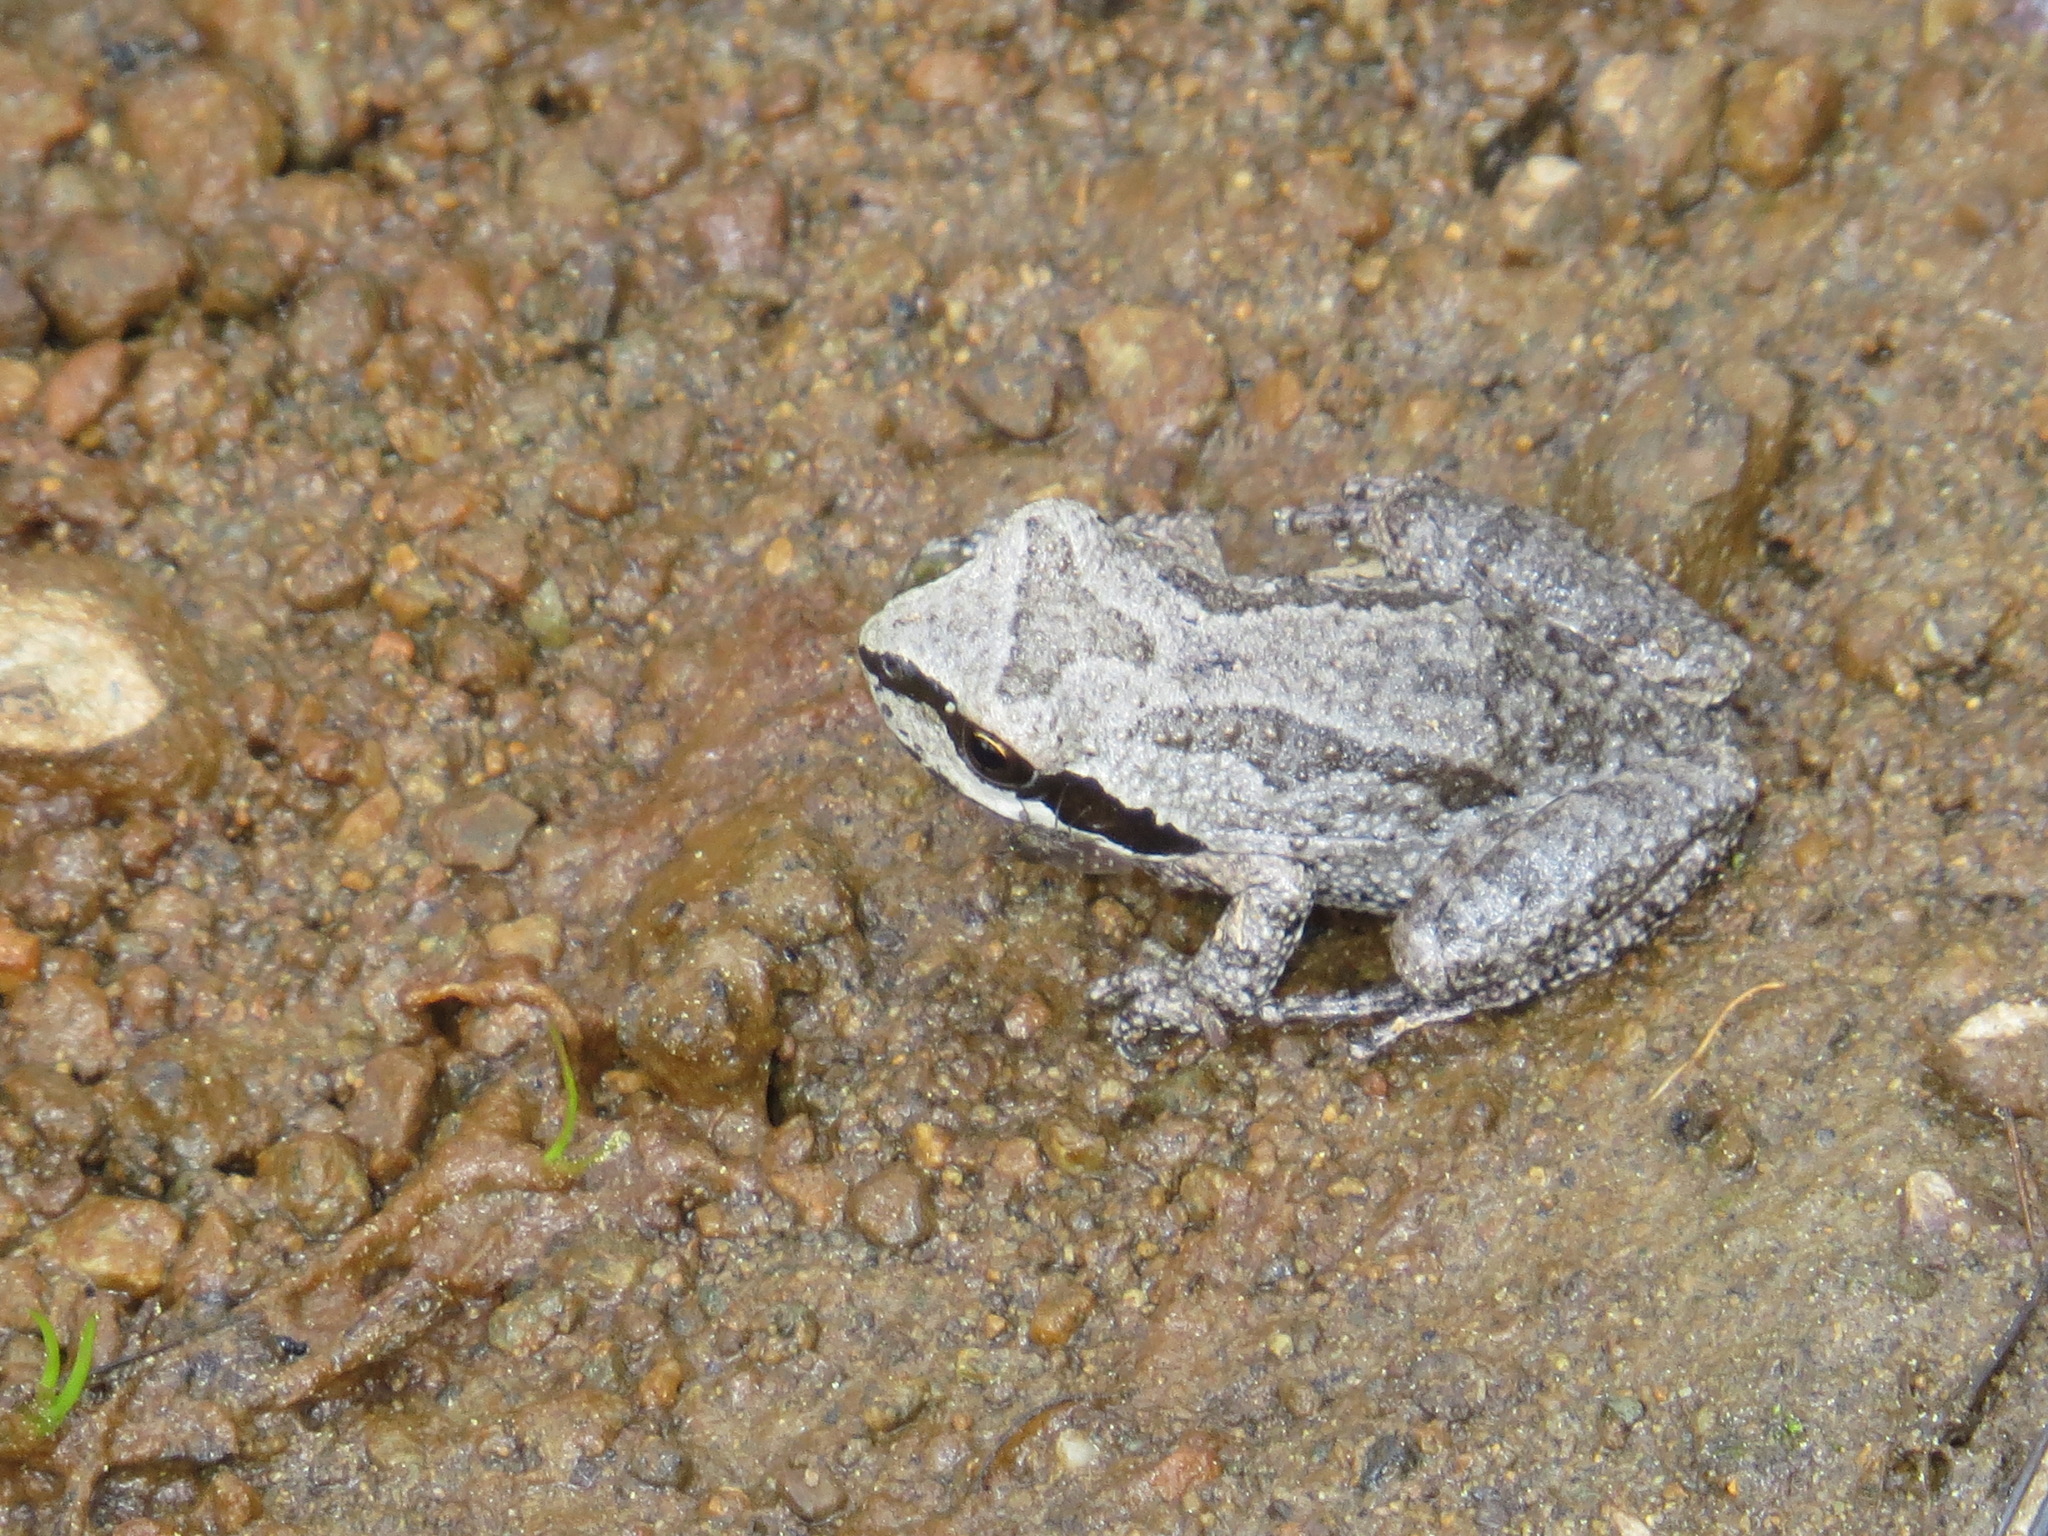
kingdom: Animalia
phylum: Chordata
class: Amphibia
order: Anura
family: Hylidae
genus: Pseudacris
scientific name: Pseudacris regilla
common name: Pacific chorus frog
